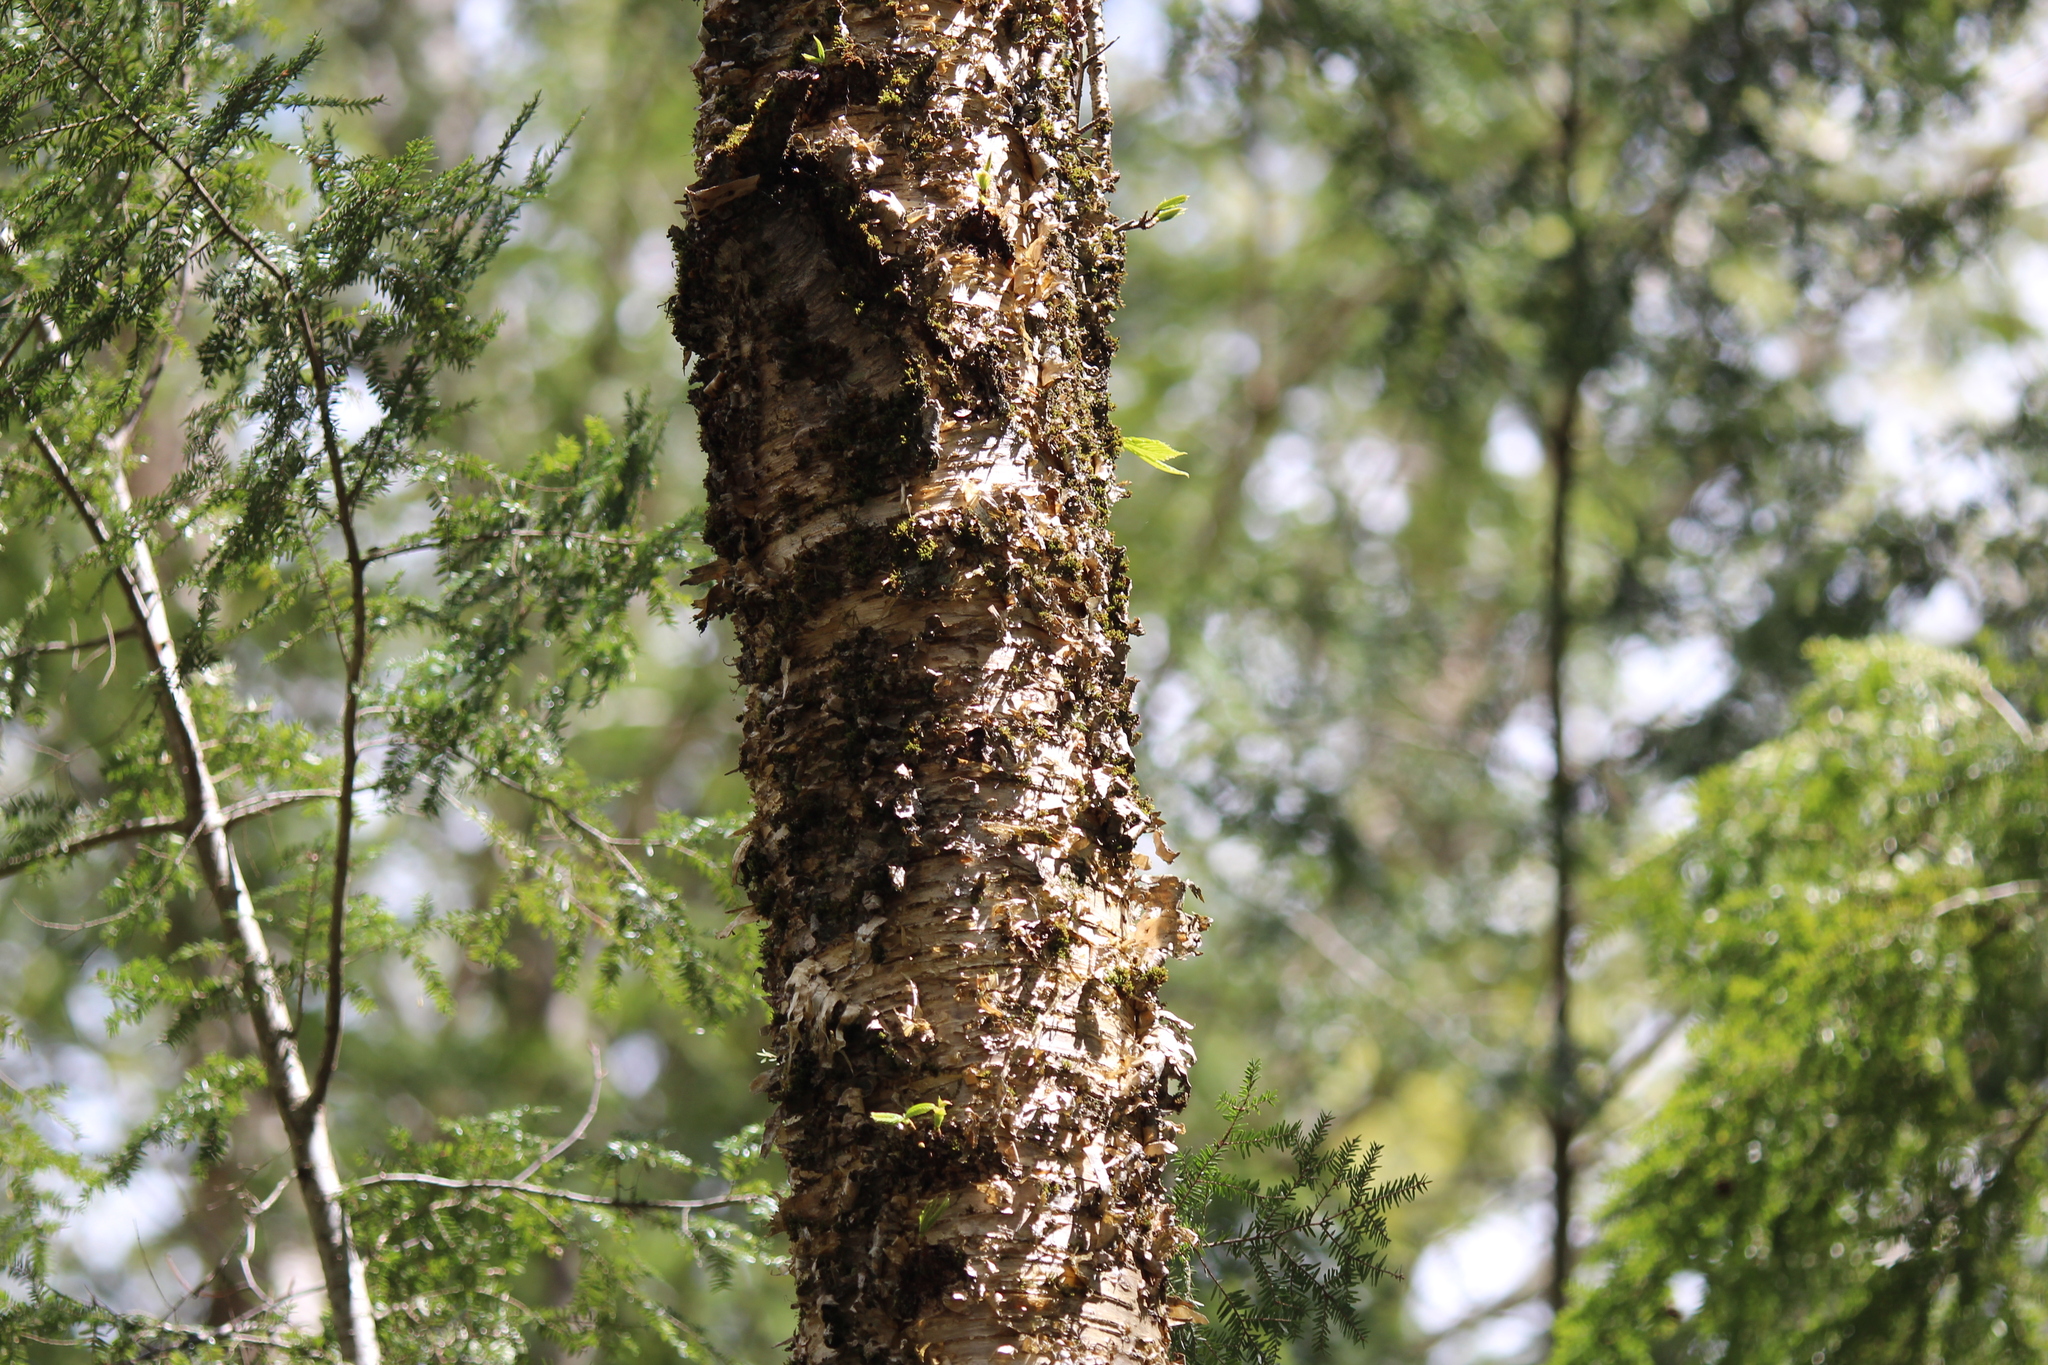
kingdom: Plantae
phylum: Tracheophyta
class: Magnoliopsida
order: Fagales
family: Betulaceae
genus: Betula
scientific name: Betula alleghaniensis
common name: Yellow birch
